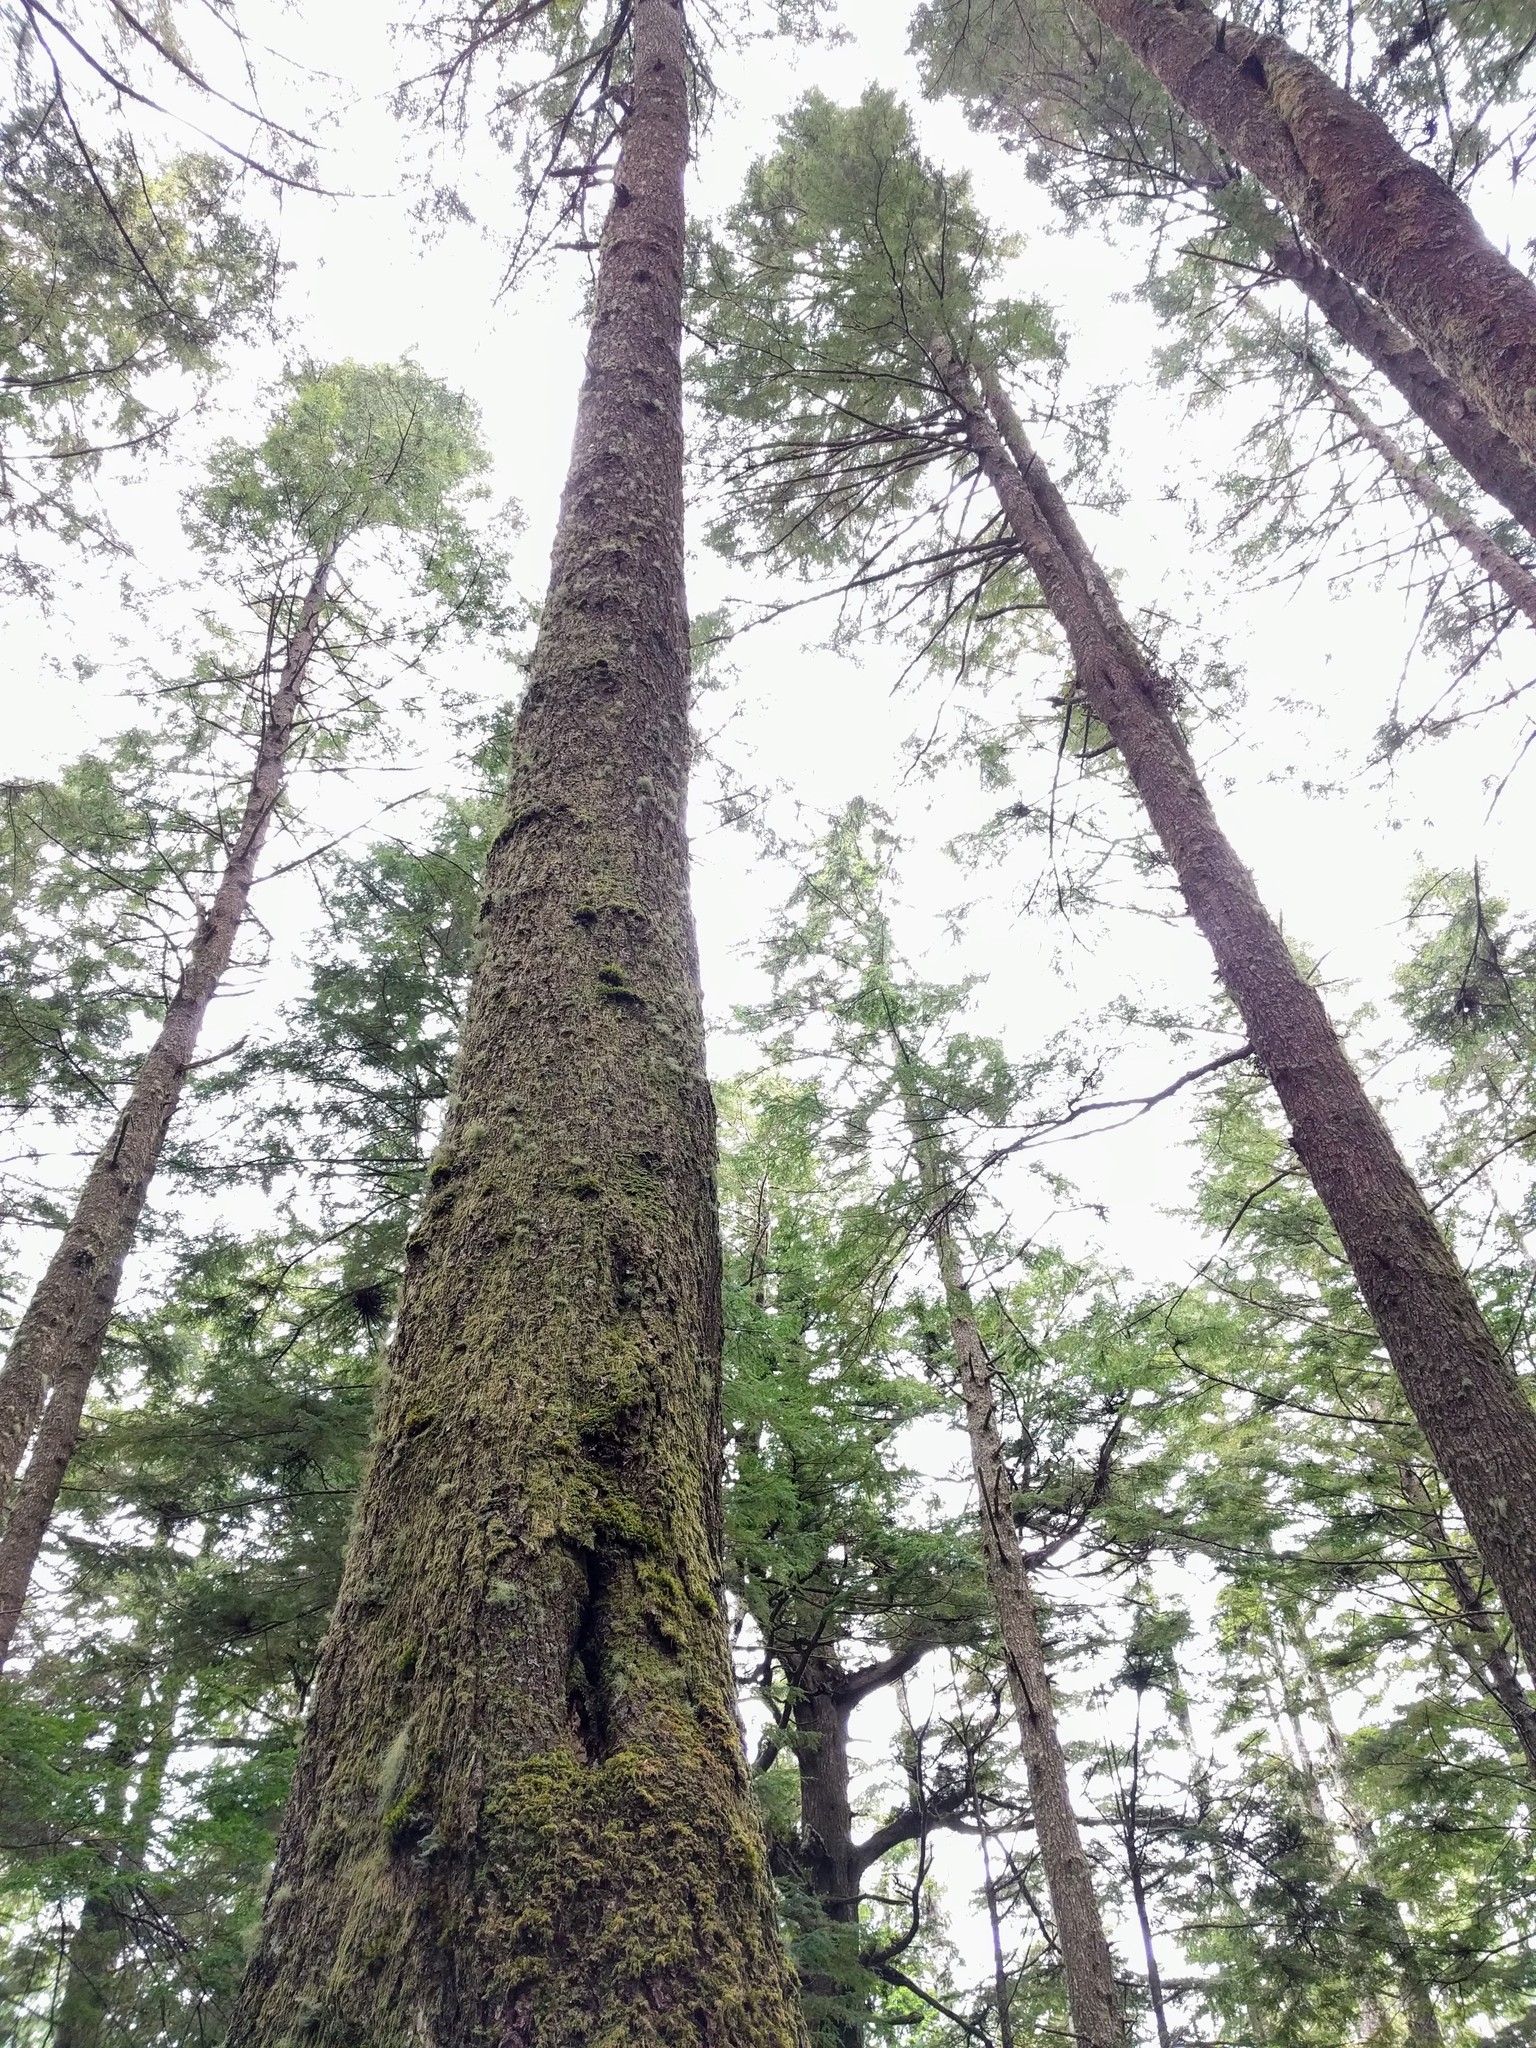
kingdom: Plantae
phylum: Tracheophyta
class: Polypodiopsida
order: Polypodiales
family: Polypodiaceae
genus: Polypodium
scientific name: Polypodium scouleri
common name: Scouler's polypody
